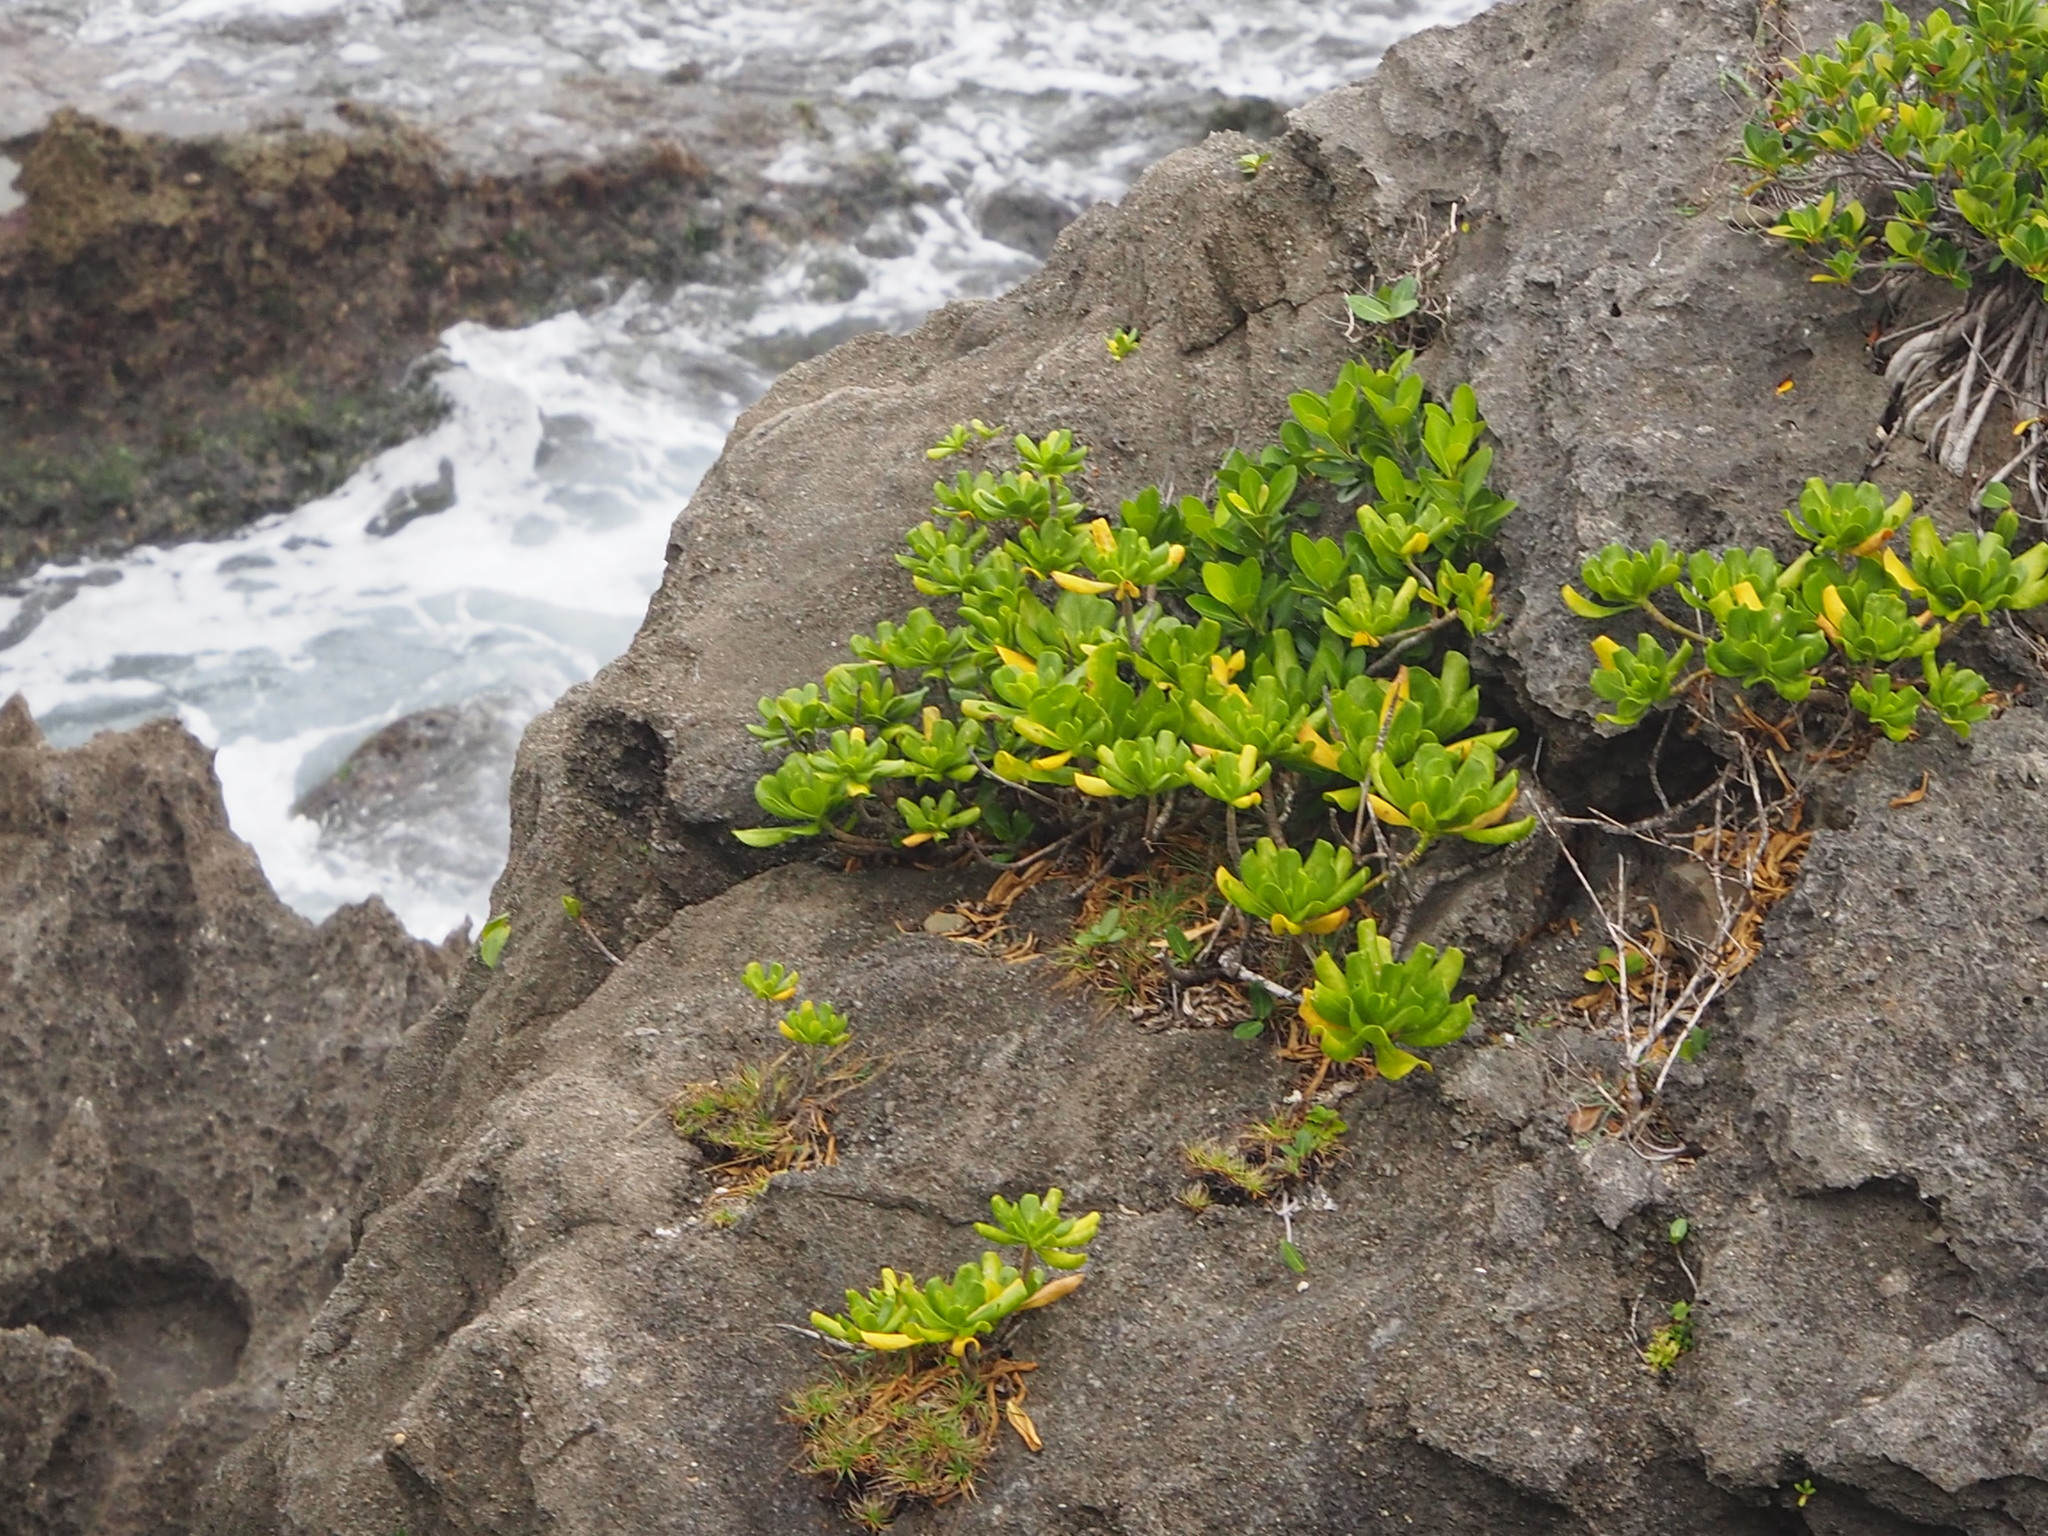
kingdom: Plantae
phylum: Tracheophyta
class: Magnoliopsida
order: Asterales
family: Goodeniaceae
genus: Scaevola
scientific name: Scaevola taccada
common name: Sea lettucetree
